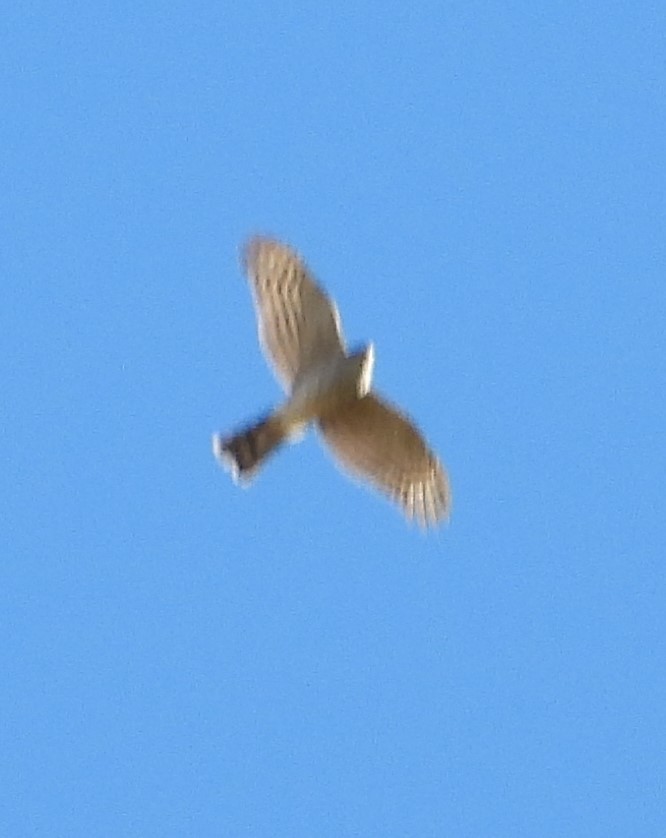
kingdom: Animalia
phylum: Chordata
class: Aves
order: Accipitriformes
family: Accipitridae
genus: Accipiter
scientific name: Accipiter striatus
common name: Sharp-shinned hawk
